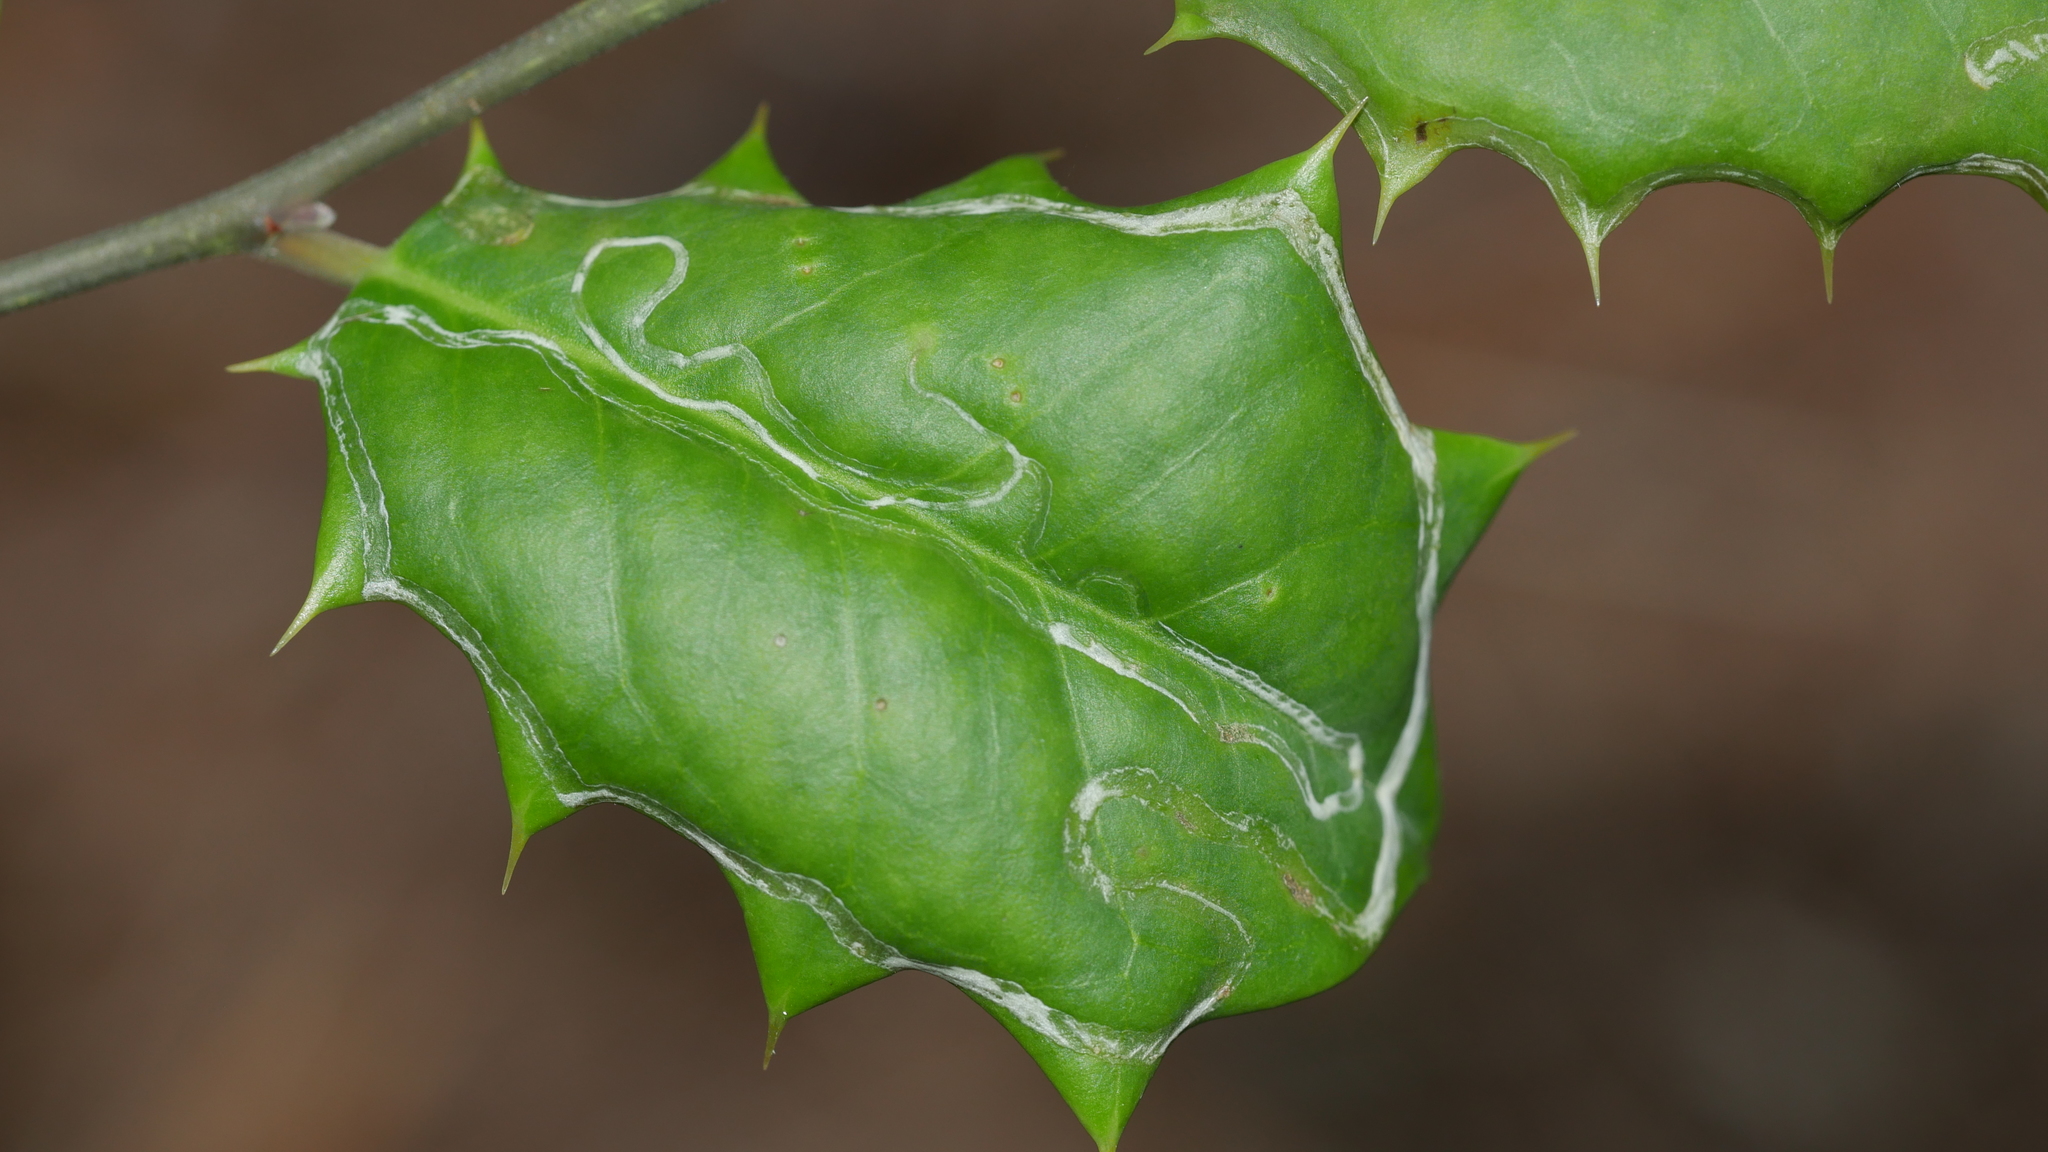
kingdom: Animalia
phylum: Arthropoda
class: Insecta
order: Diptera
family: Agromyzidae
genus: Phytomyza
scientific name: Phytomyza opacae
